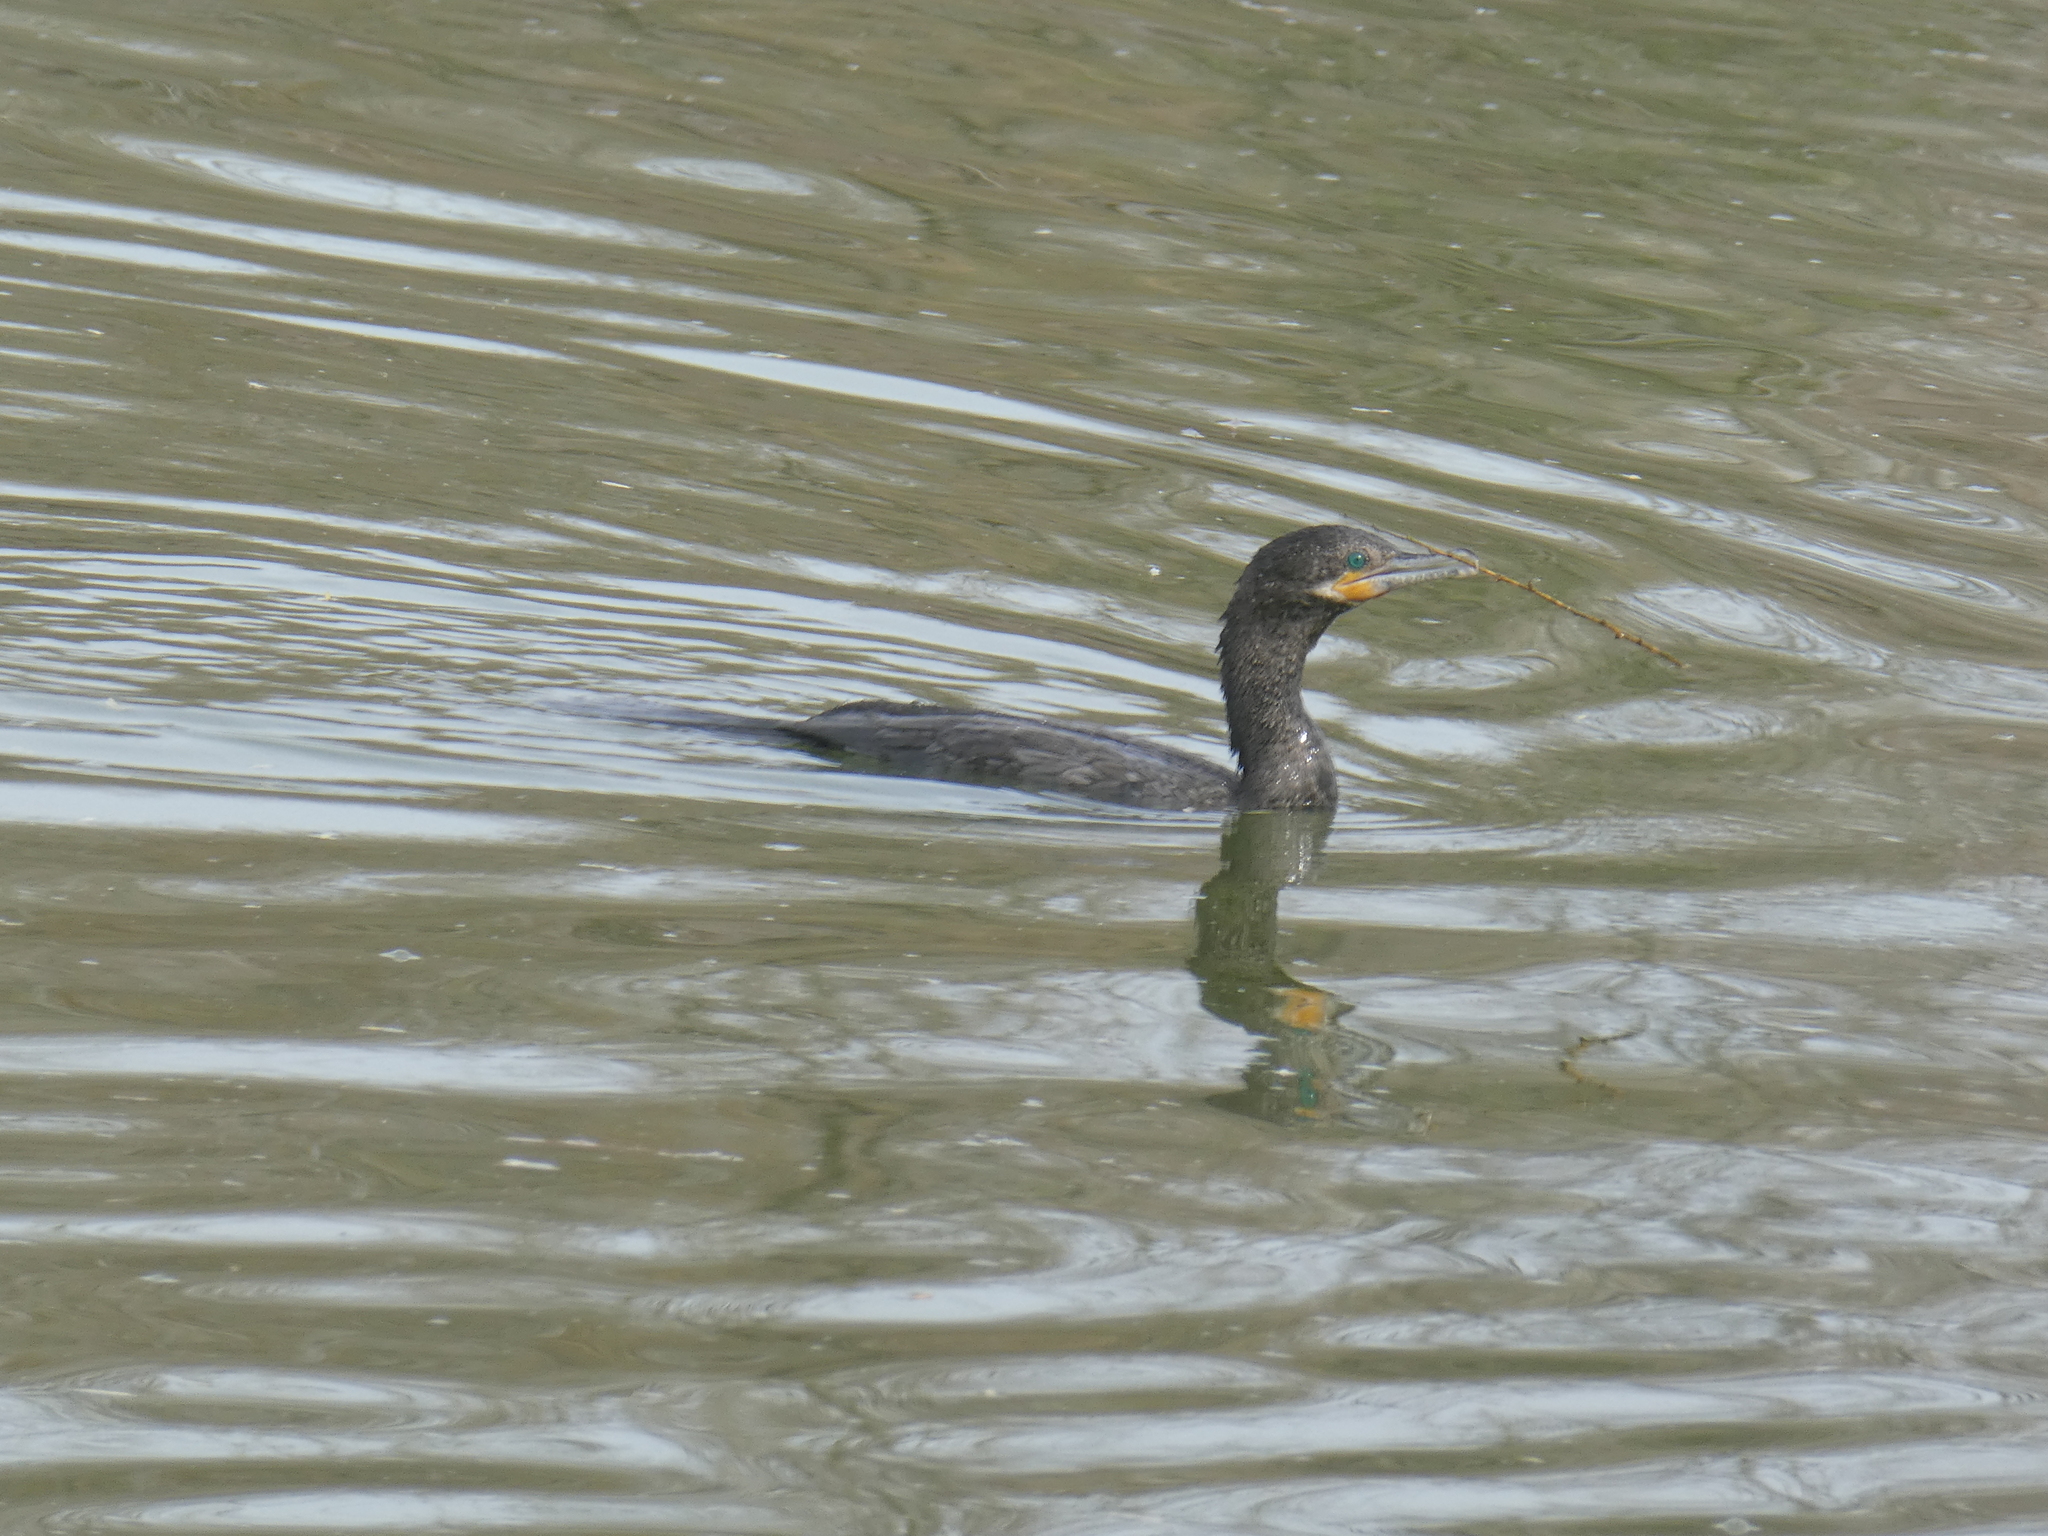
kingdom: Animalia
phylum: Chordata
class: Aves
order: Suliformes
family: Phalacrocoracidae
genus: Phalacrocorax
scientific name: Phalacrocorax brasilianus
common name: Neotropic cormorant
